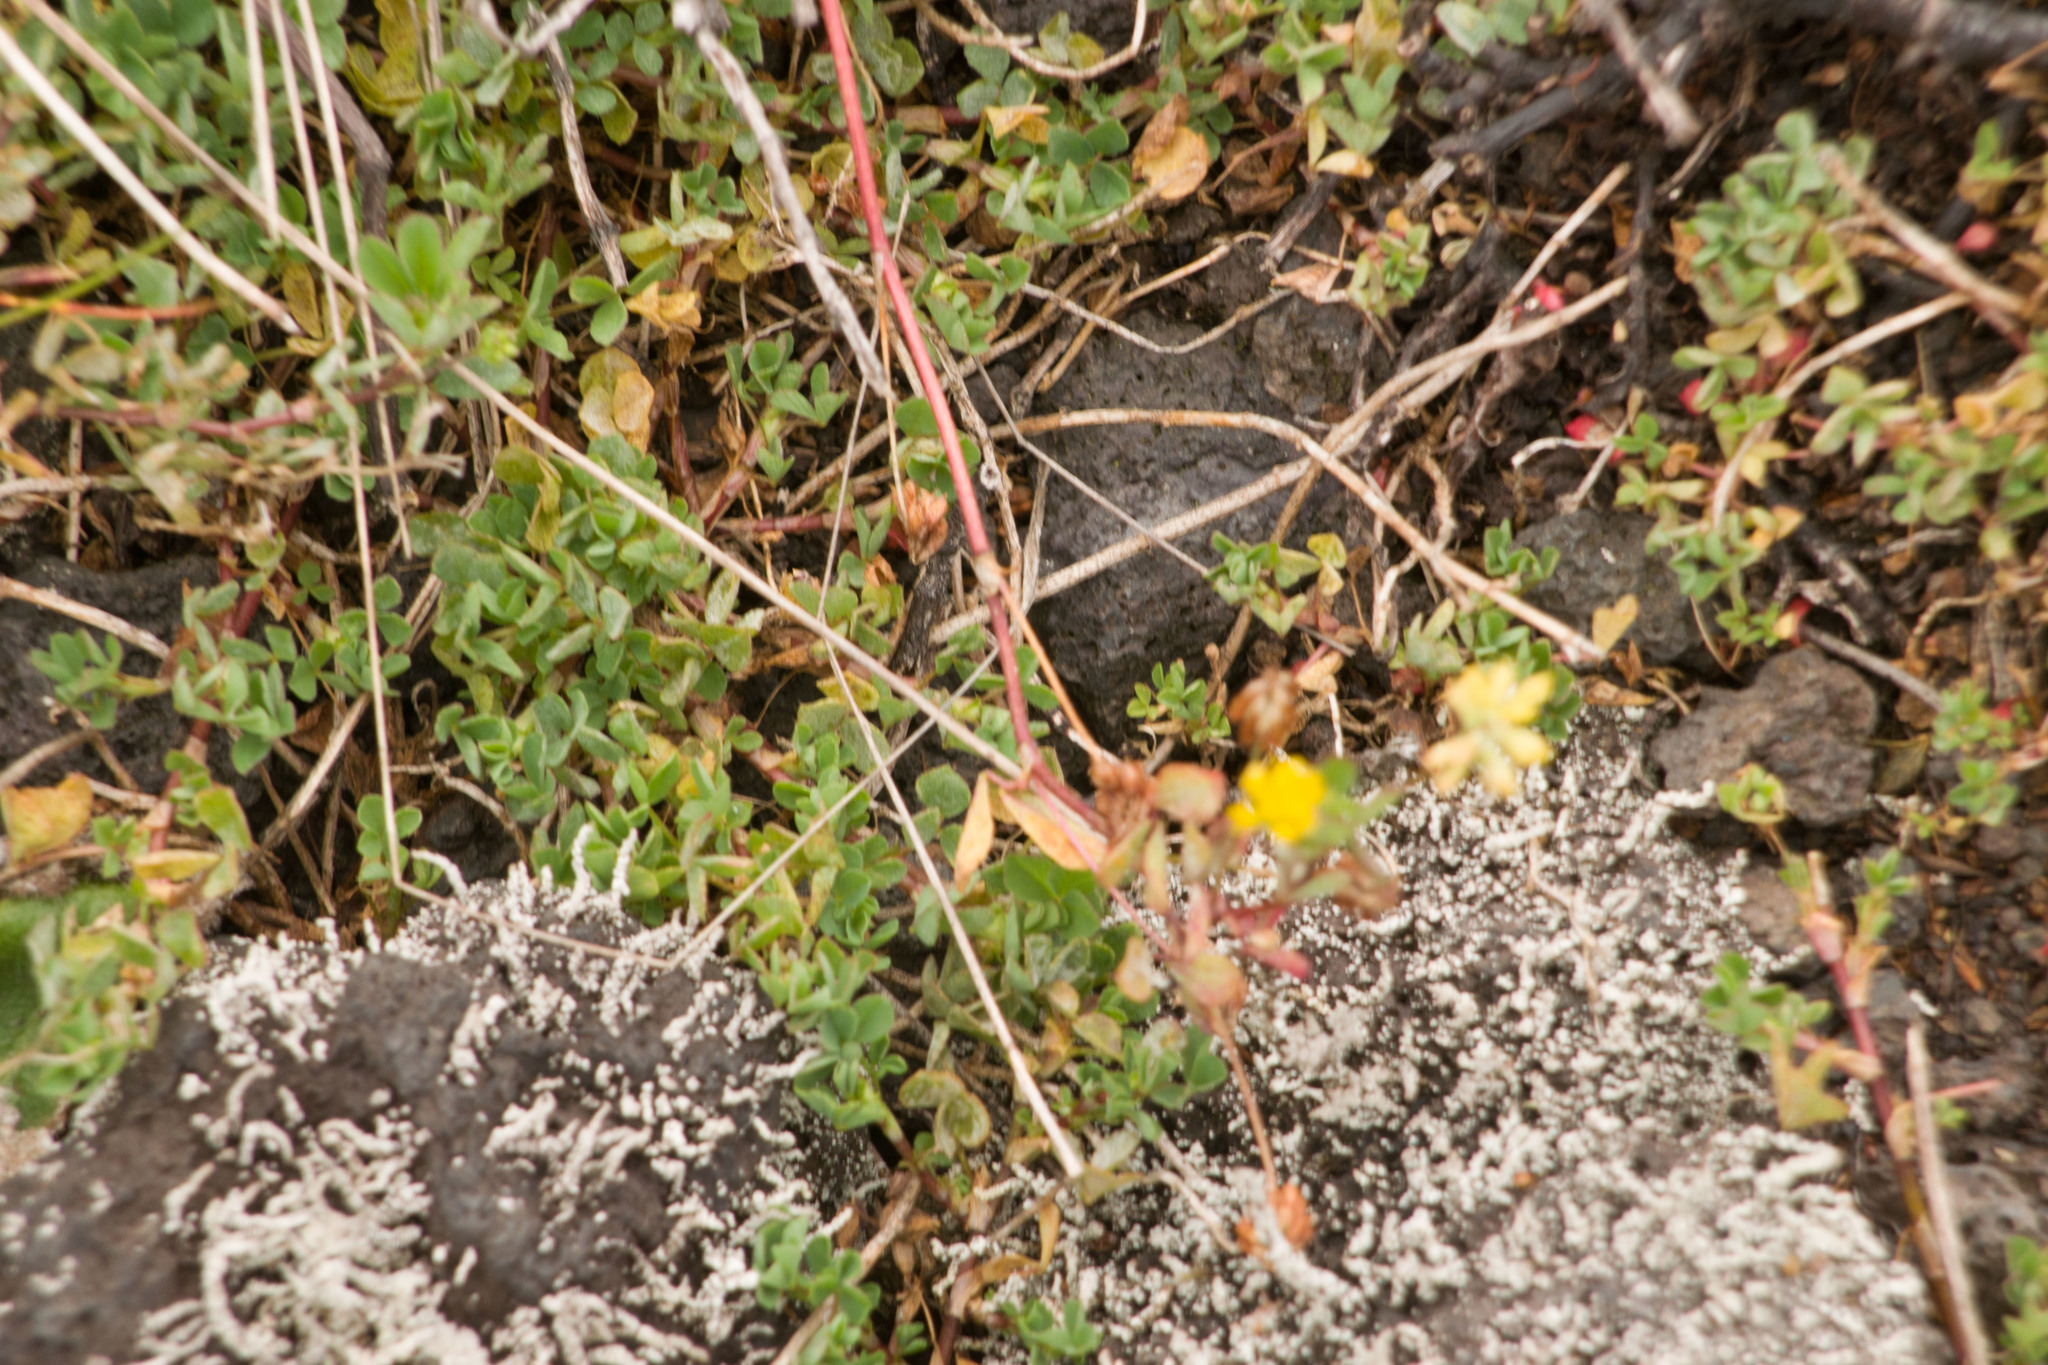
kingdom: Plantae
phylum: Tracheophyta
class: Magnoliopsida
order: Fabales
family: Fabaceae
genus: Trifolium
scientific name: Trifolium dubium
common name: Suckling clover
